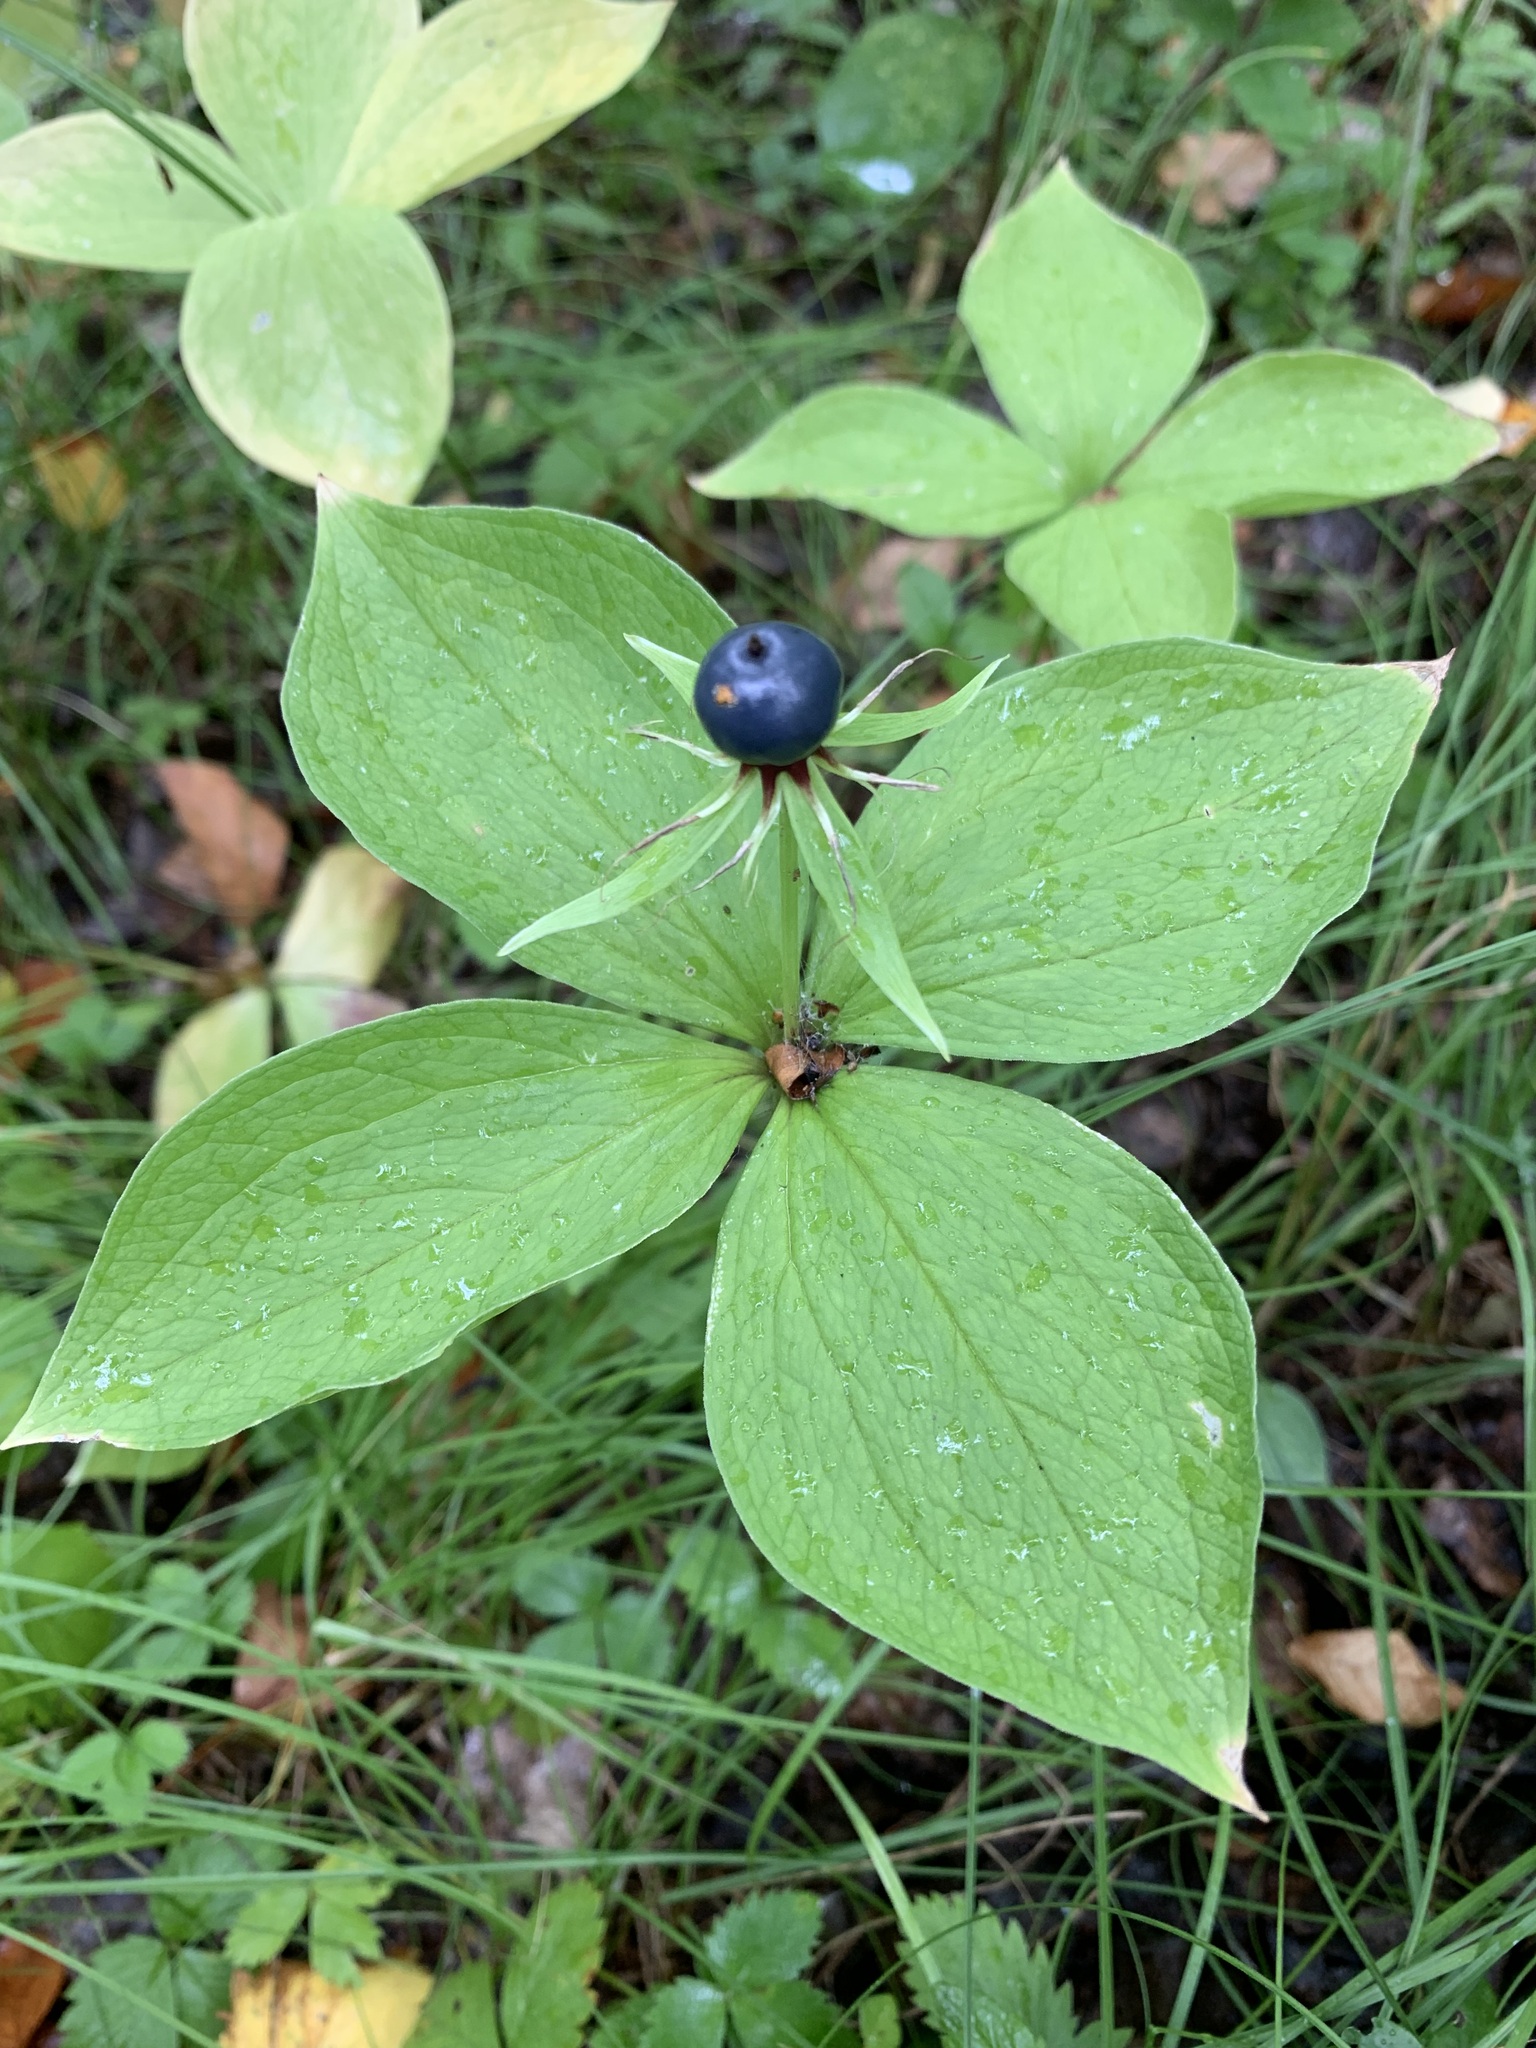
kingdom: Plantae
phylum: Tracheophyta
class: Liliopsida
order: Liliales
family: Melanthiaceae
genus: Paris
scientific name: Paris quadrifolia
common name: Herb-paris
